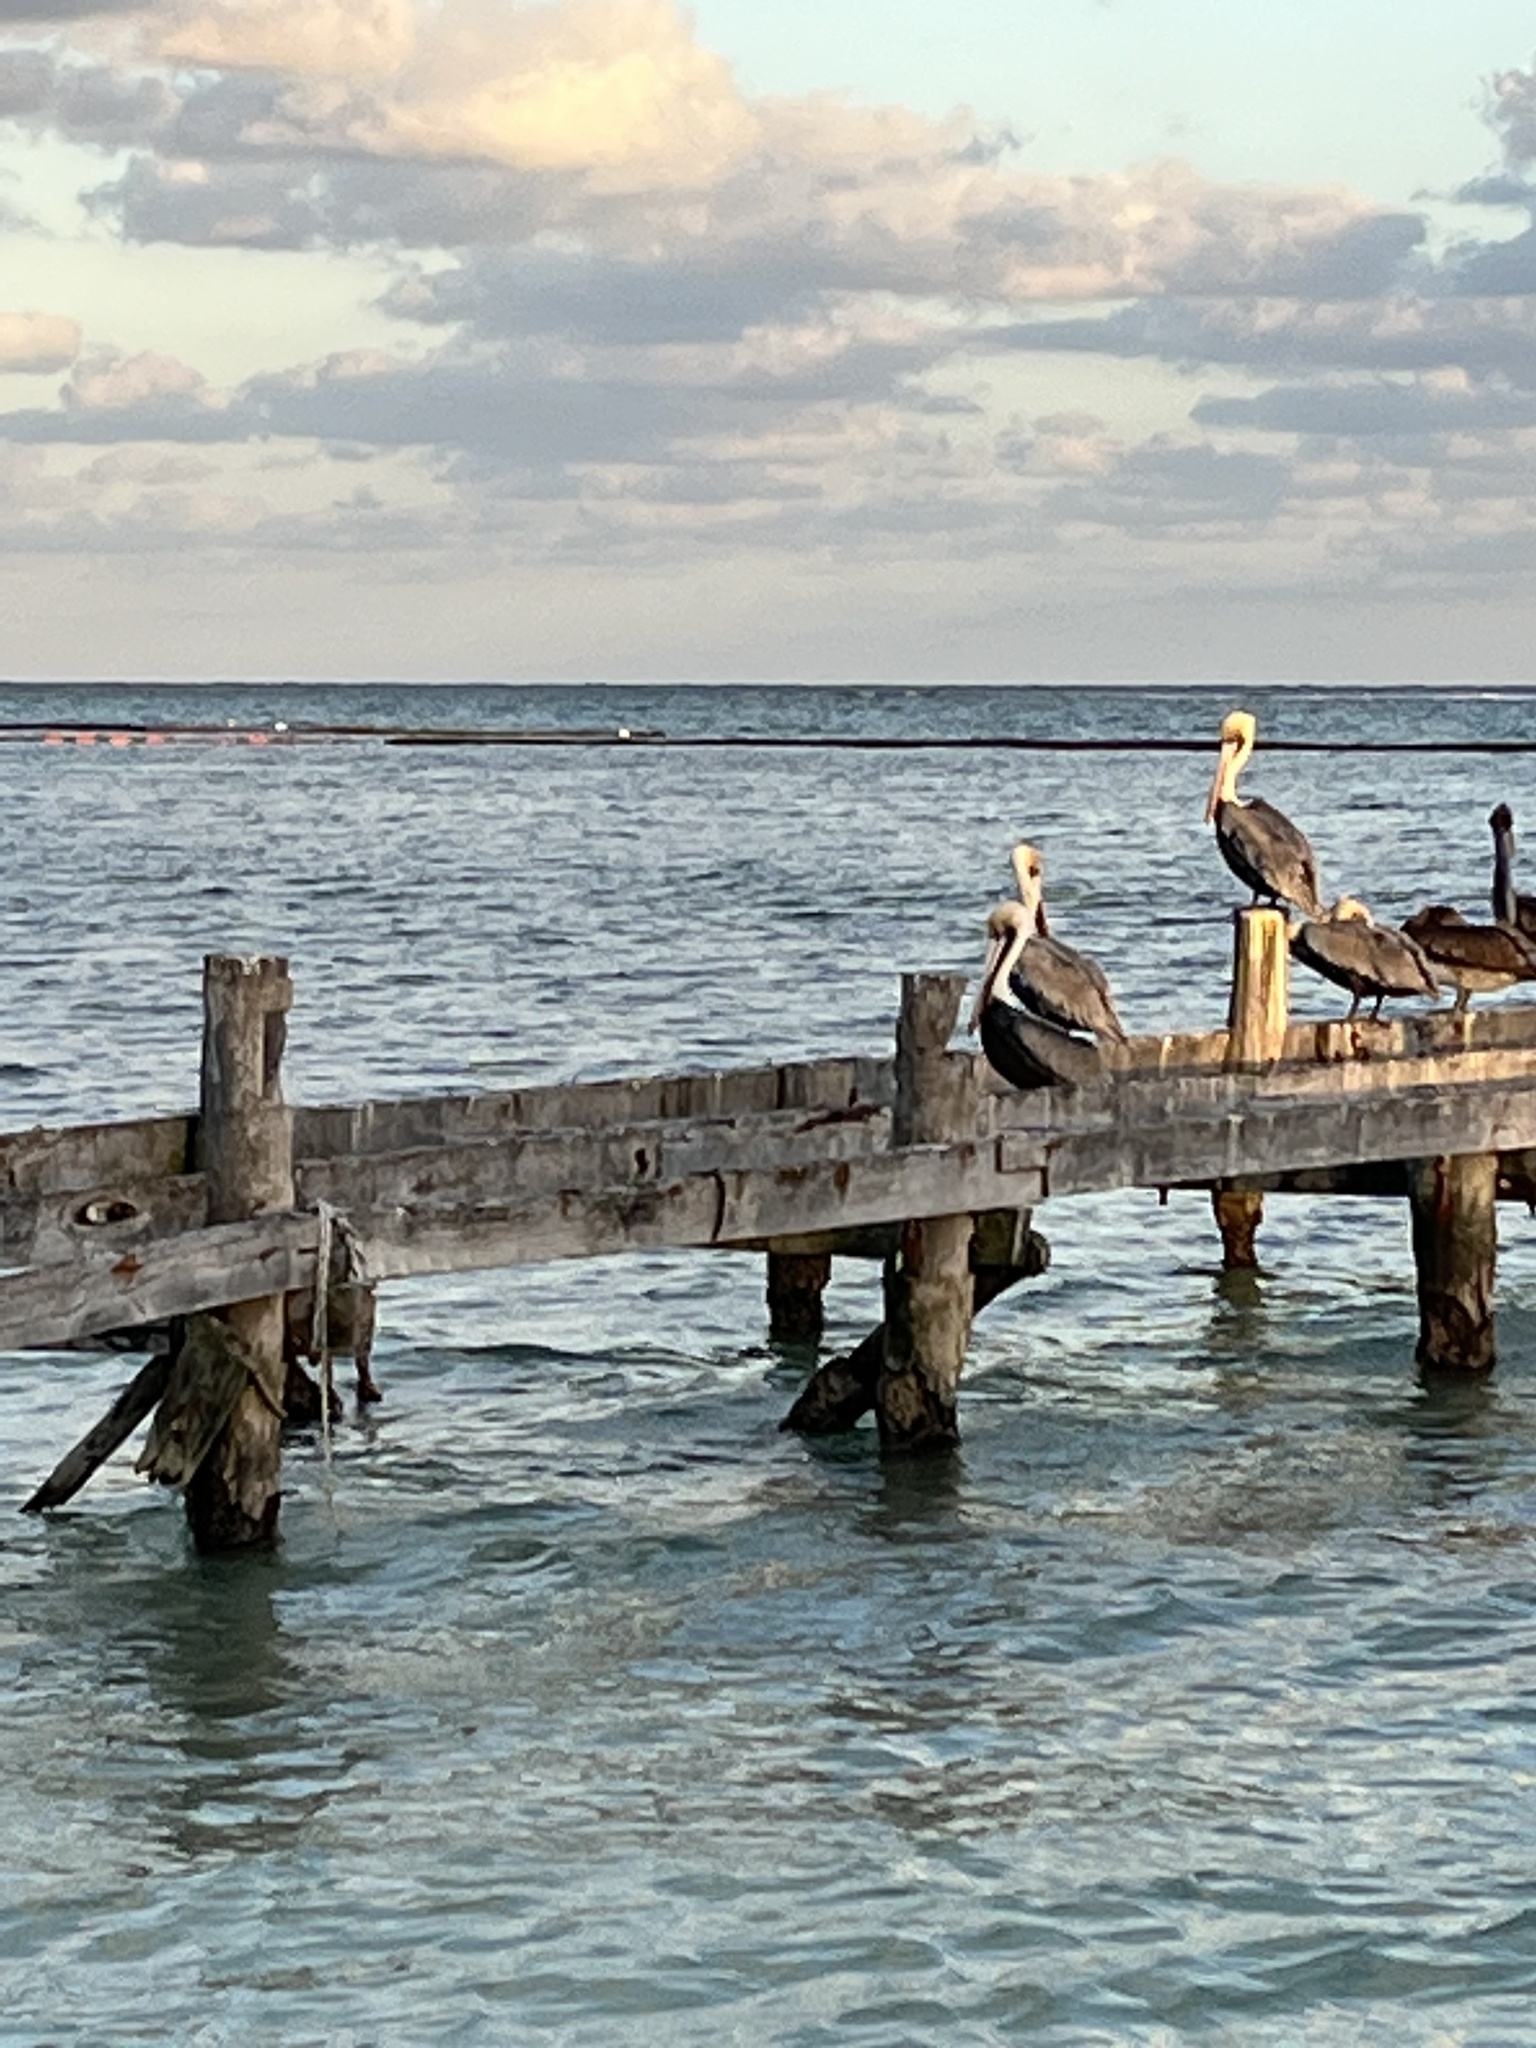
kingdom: Animalia
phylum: Chordata
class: Aves
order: Pelecaniformes
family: Pelecanidae
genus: Pelecanus
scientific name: Pelecanus occidentalis
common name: Brown pelican
